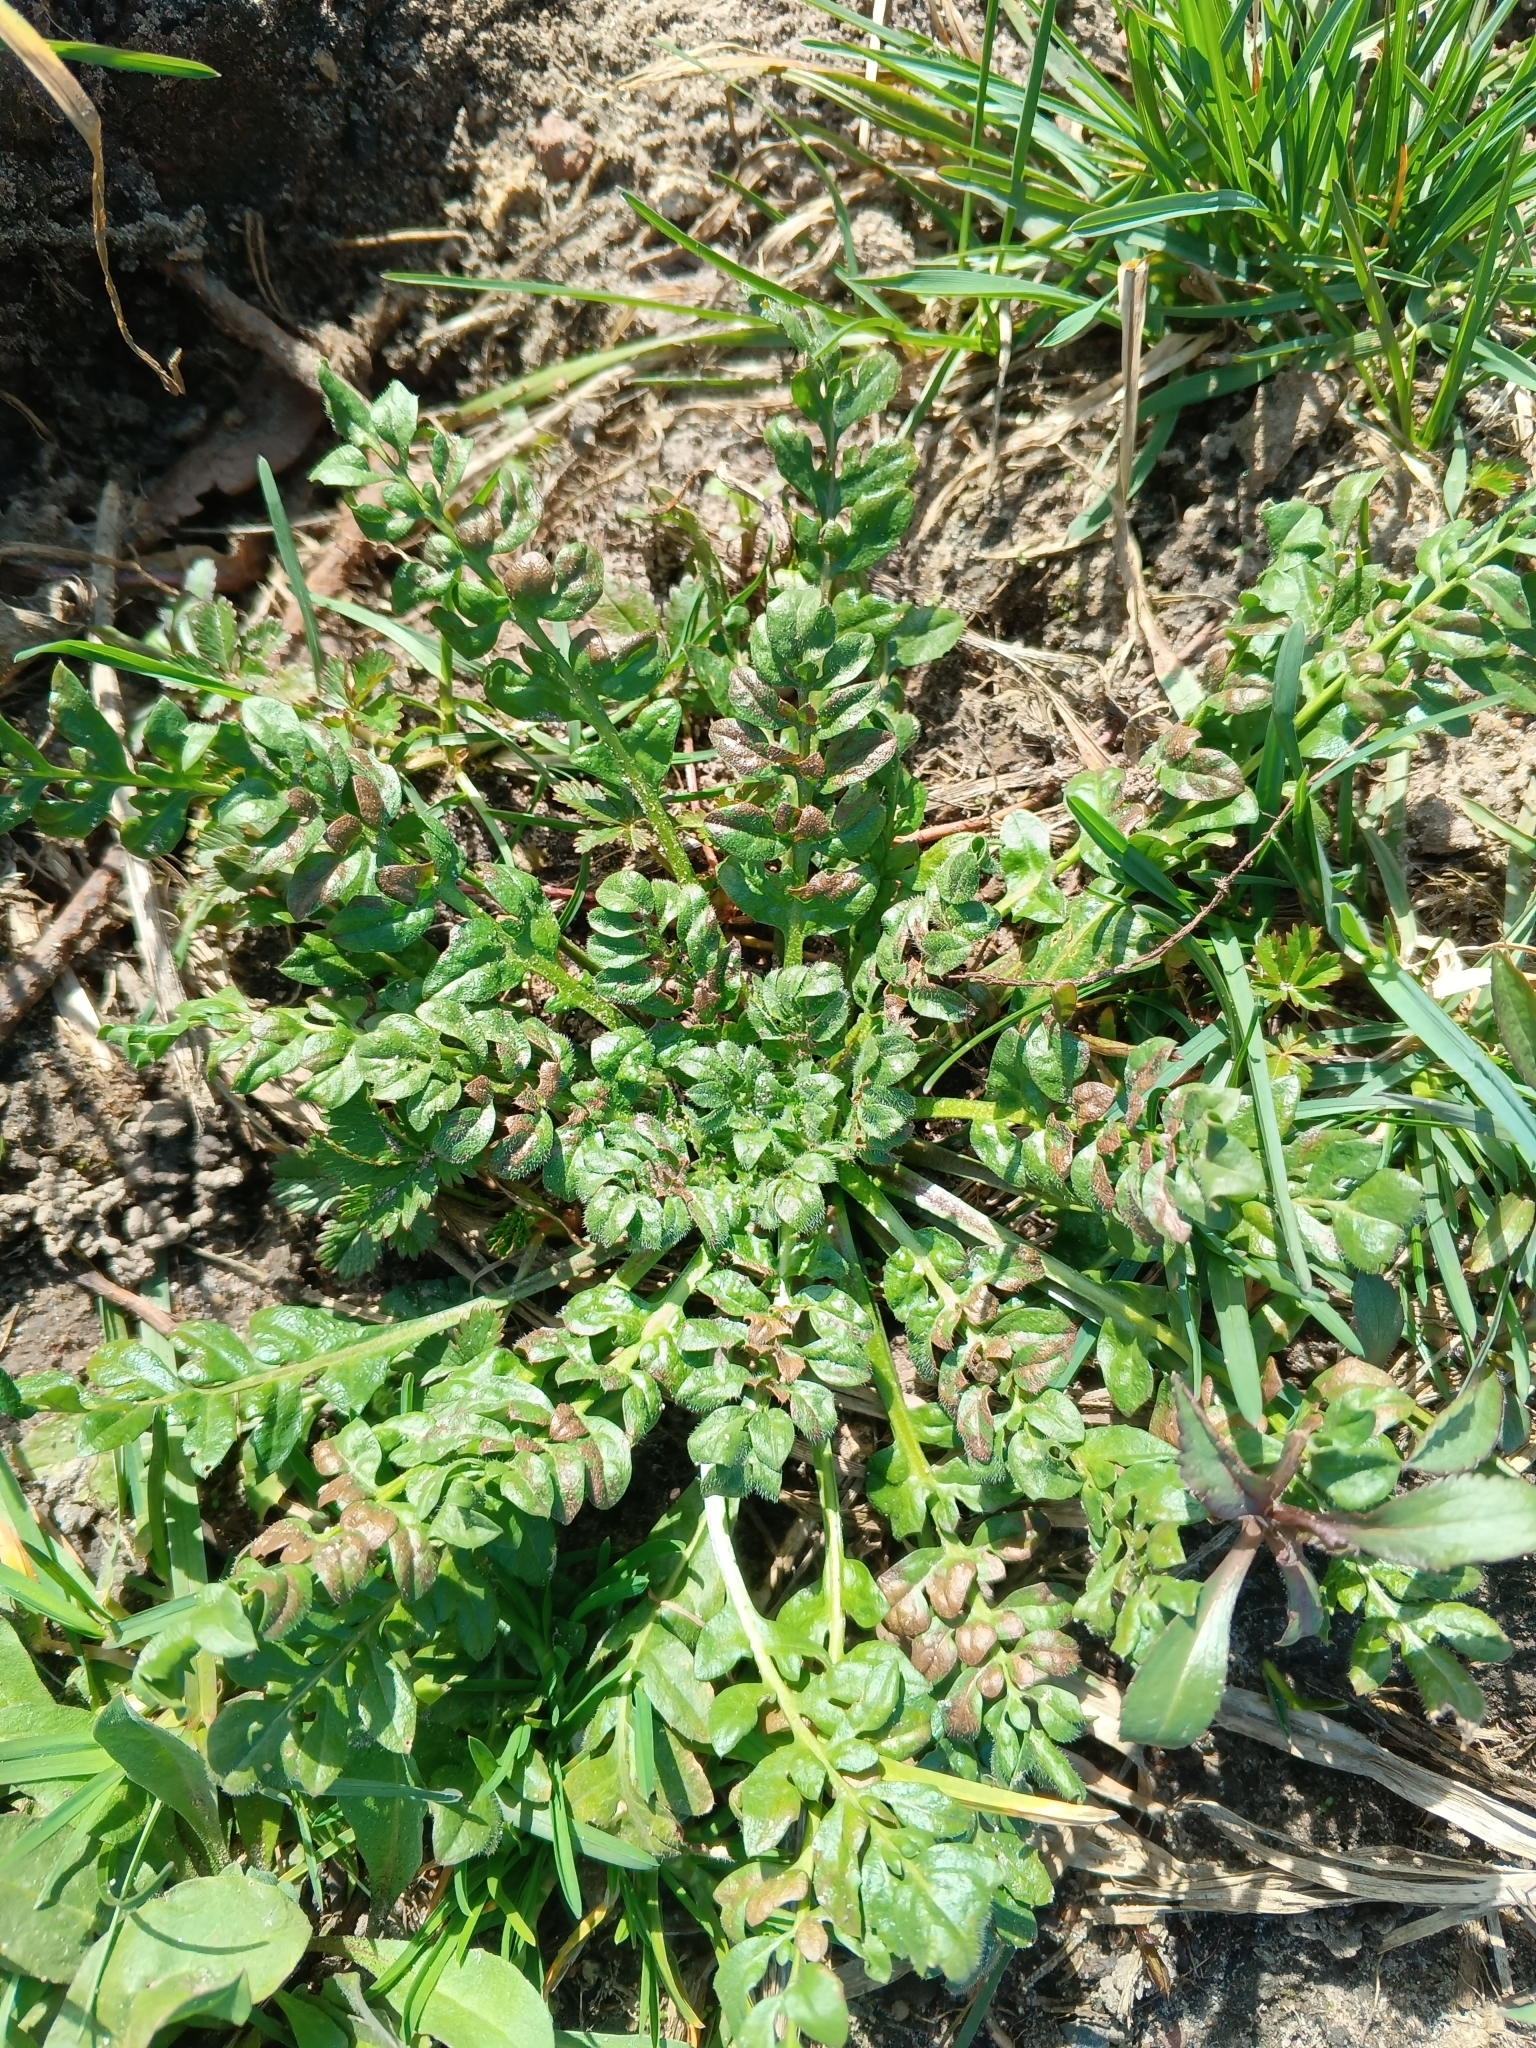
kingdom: Plantae
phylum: Tracheophyta
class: Magnoliopsida
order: Brassicales
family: Brassicaceae
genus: Capsella
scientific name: Capsella bursa-pastoris
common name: Shepherd's purse
